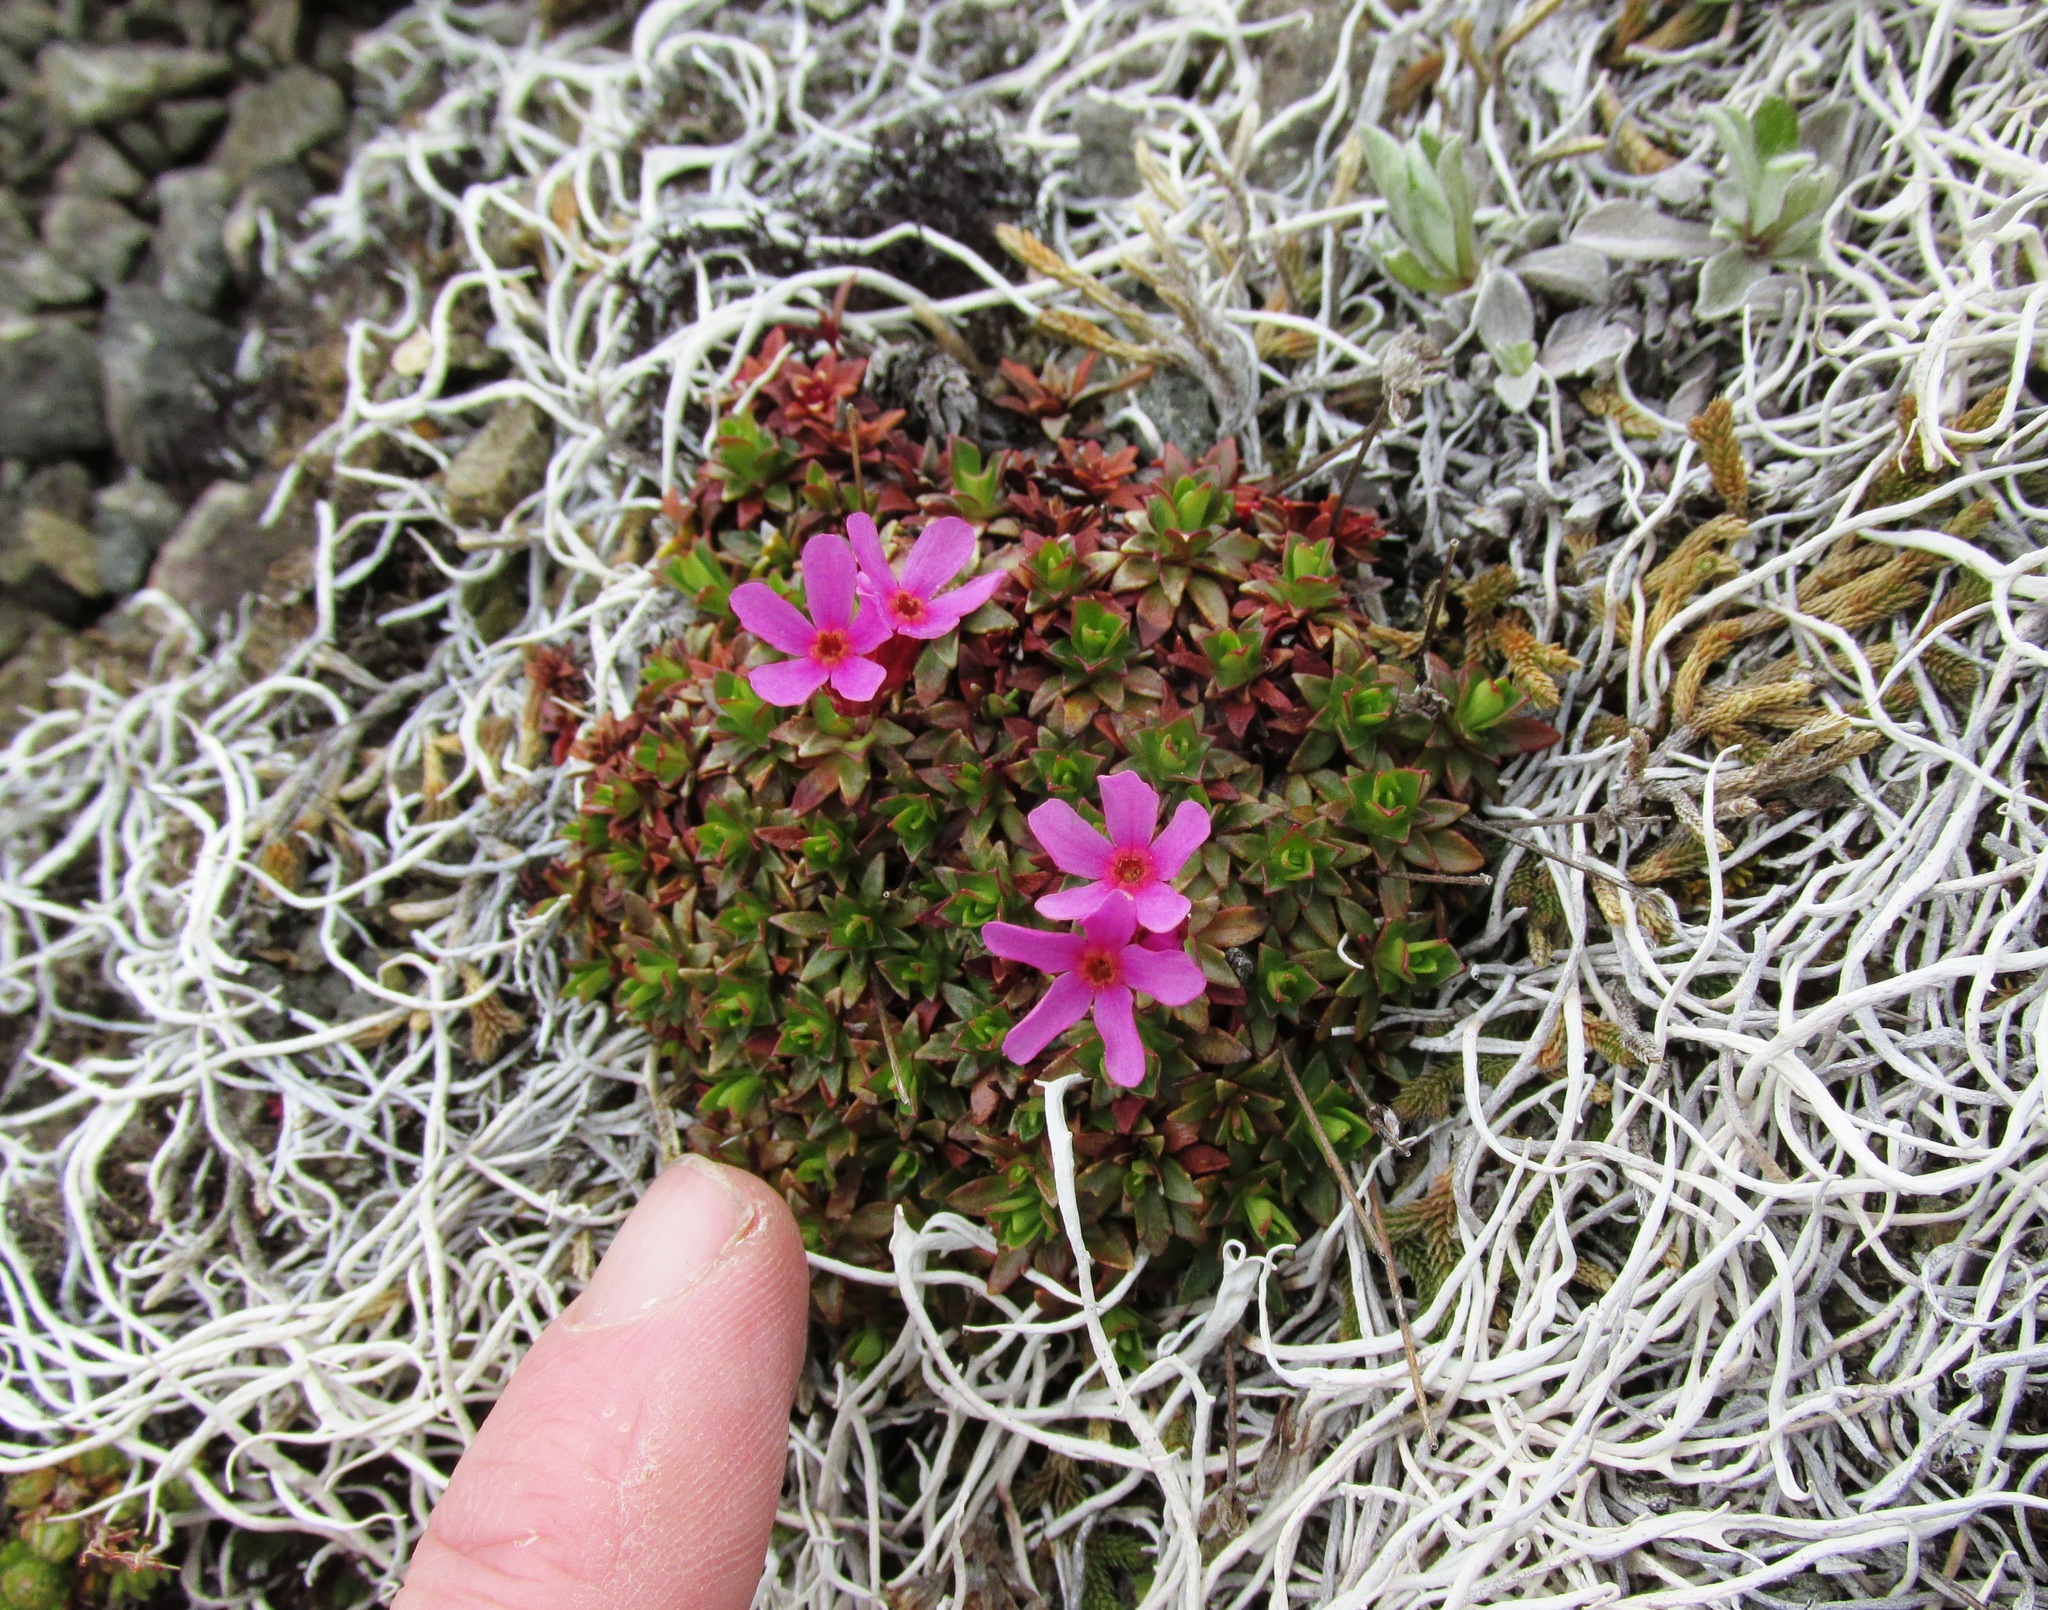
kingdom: Plantae
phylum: Tracheophyta
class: Magnoliopsida
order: Ericales
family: Primulaceae
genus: Androsace
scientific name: Androsace laevigata
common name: Cliff dwarf-primrose
